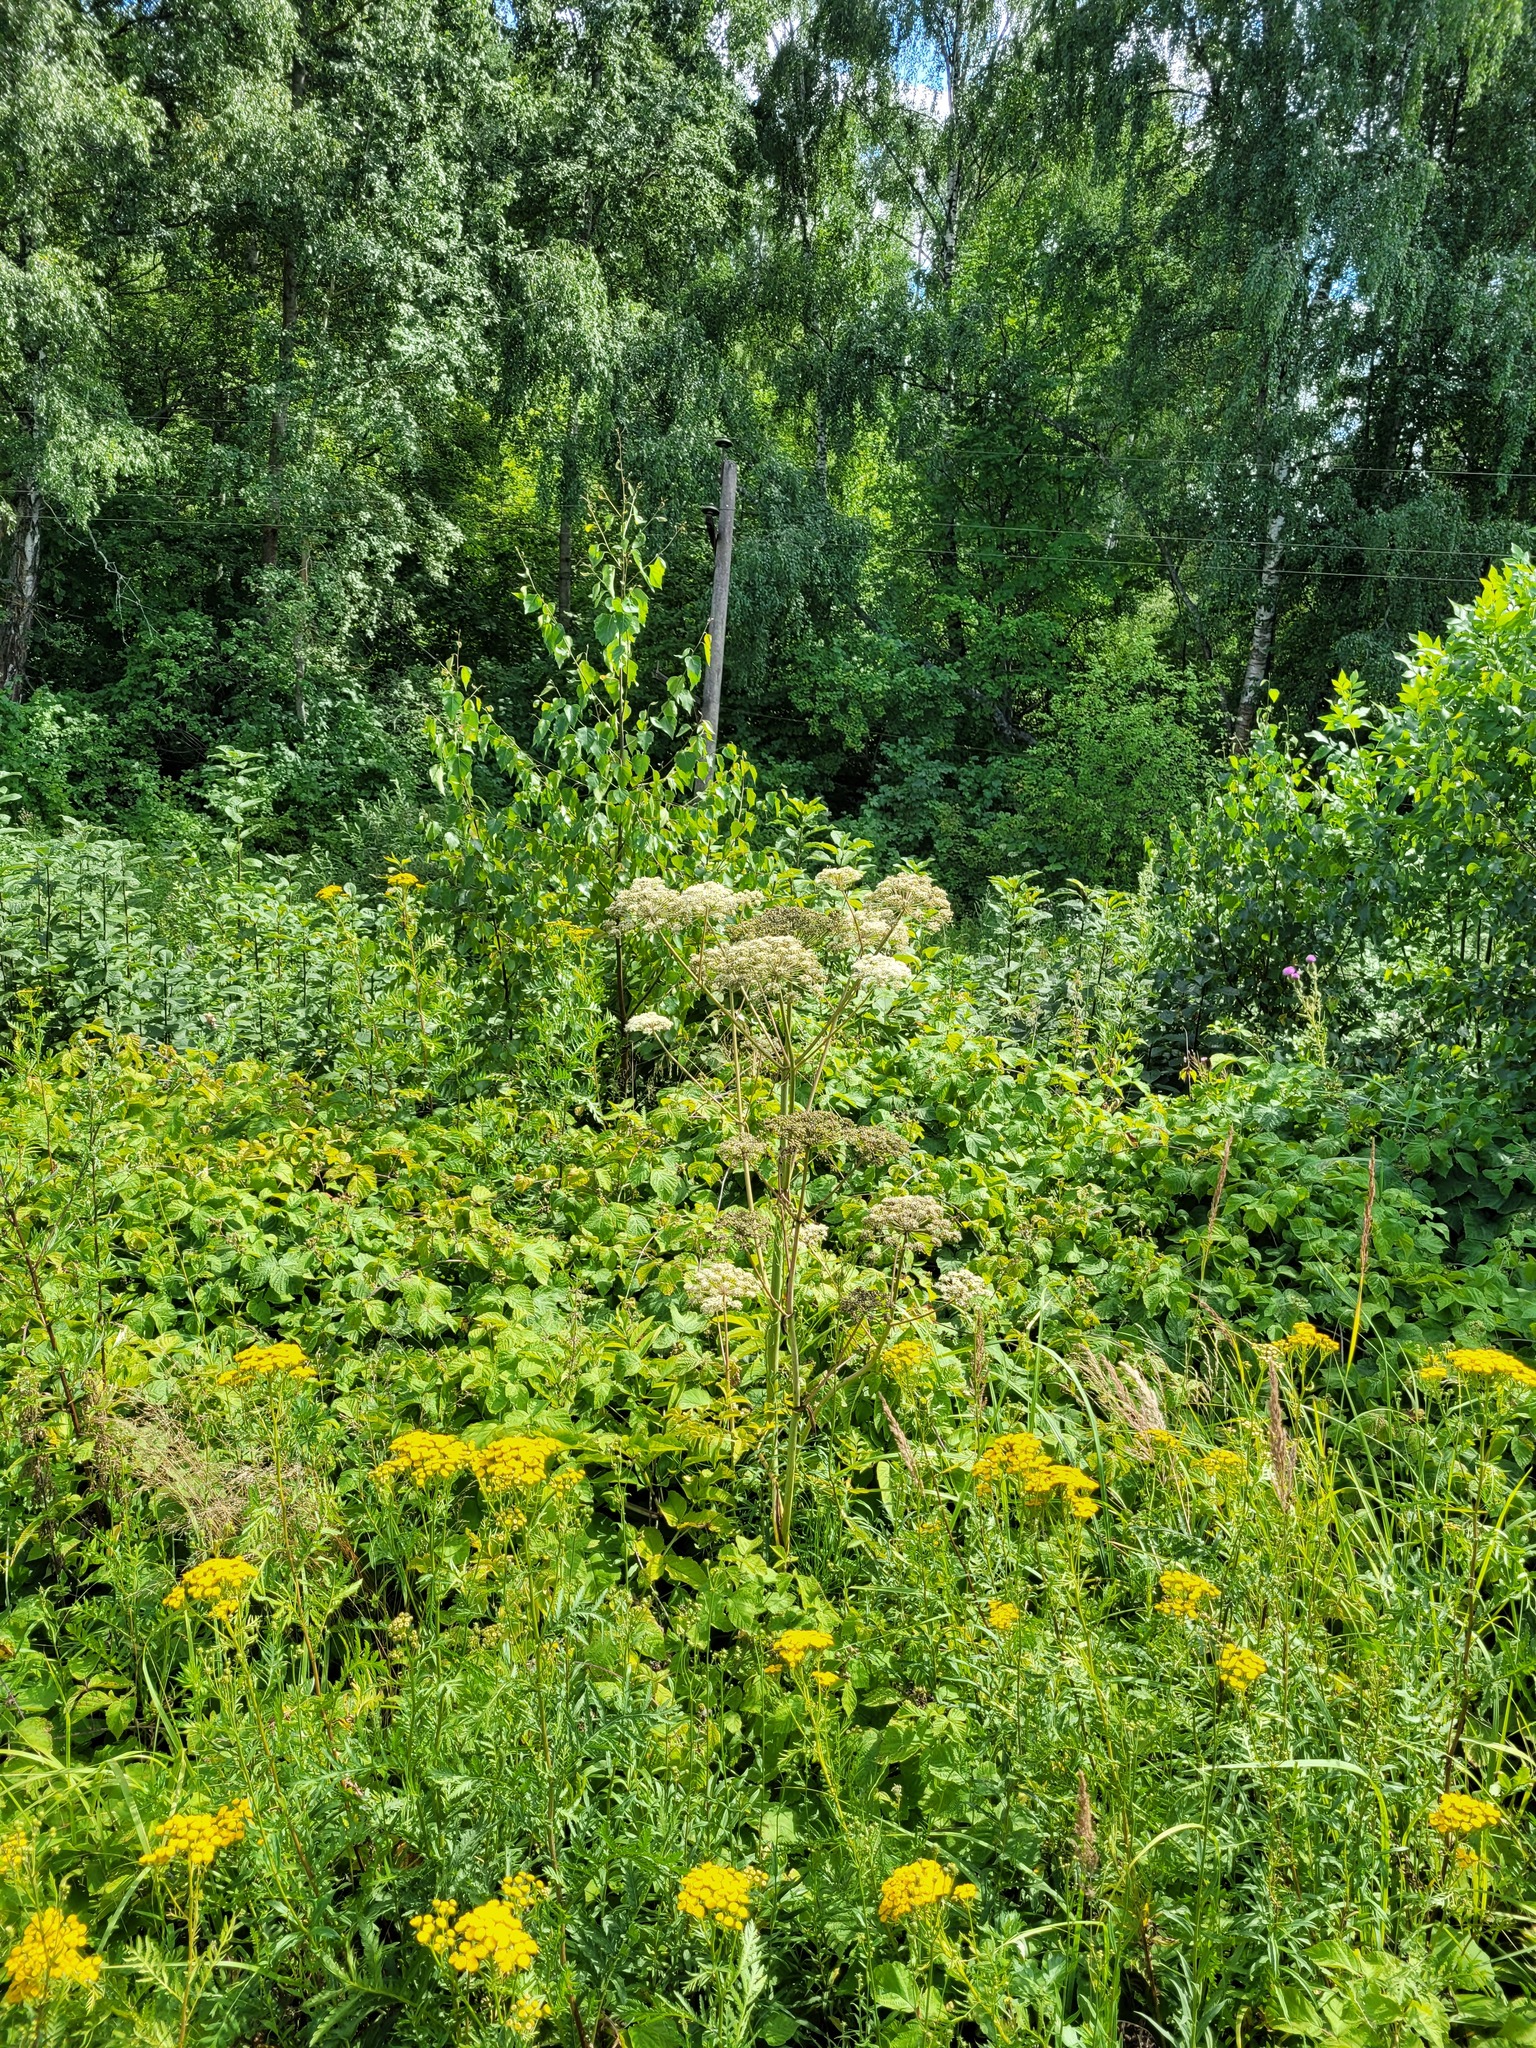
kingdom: Plantae
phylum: Tracheophyta
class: Magnoliopsida
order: Apiales
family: Apiaceae
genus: Angelica
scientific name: Angelica sylvestris
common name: Wild angelica
